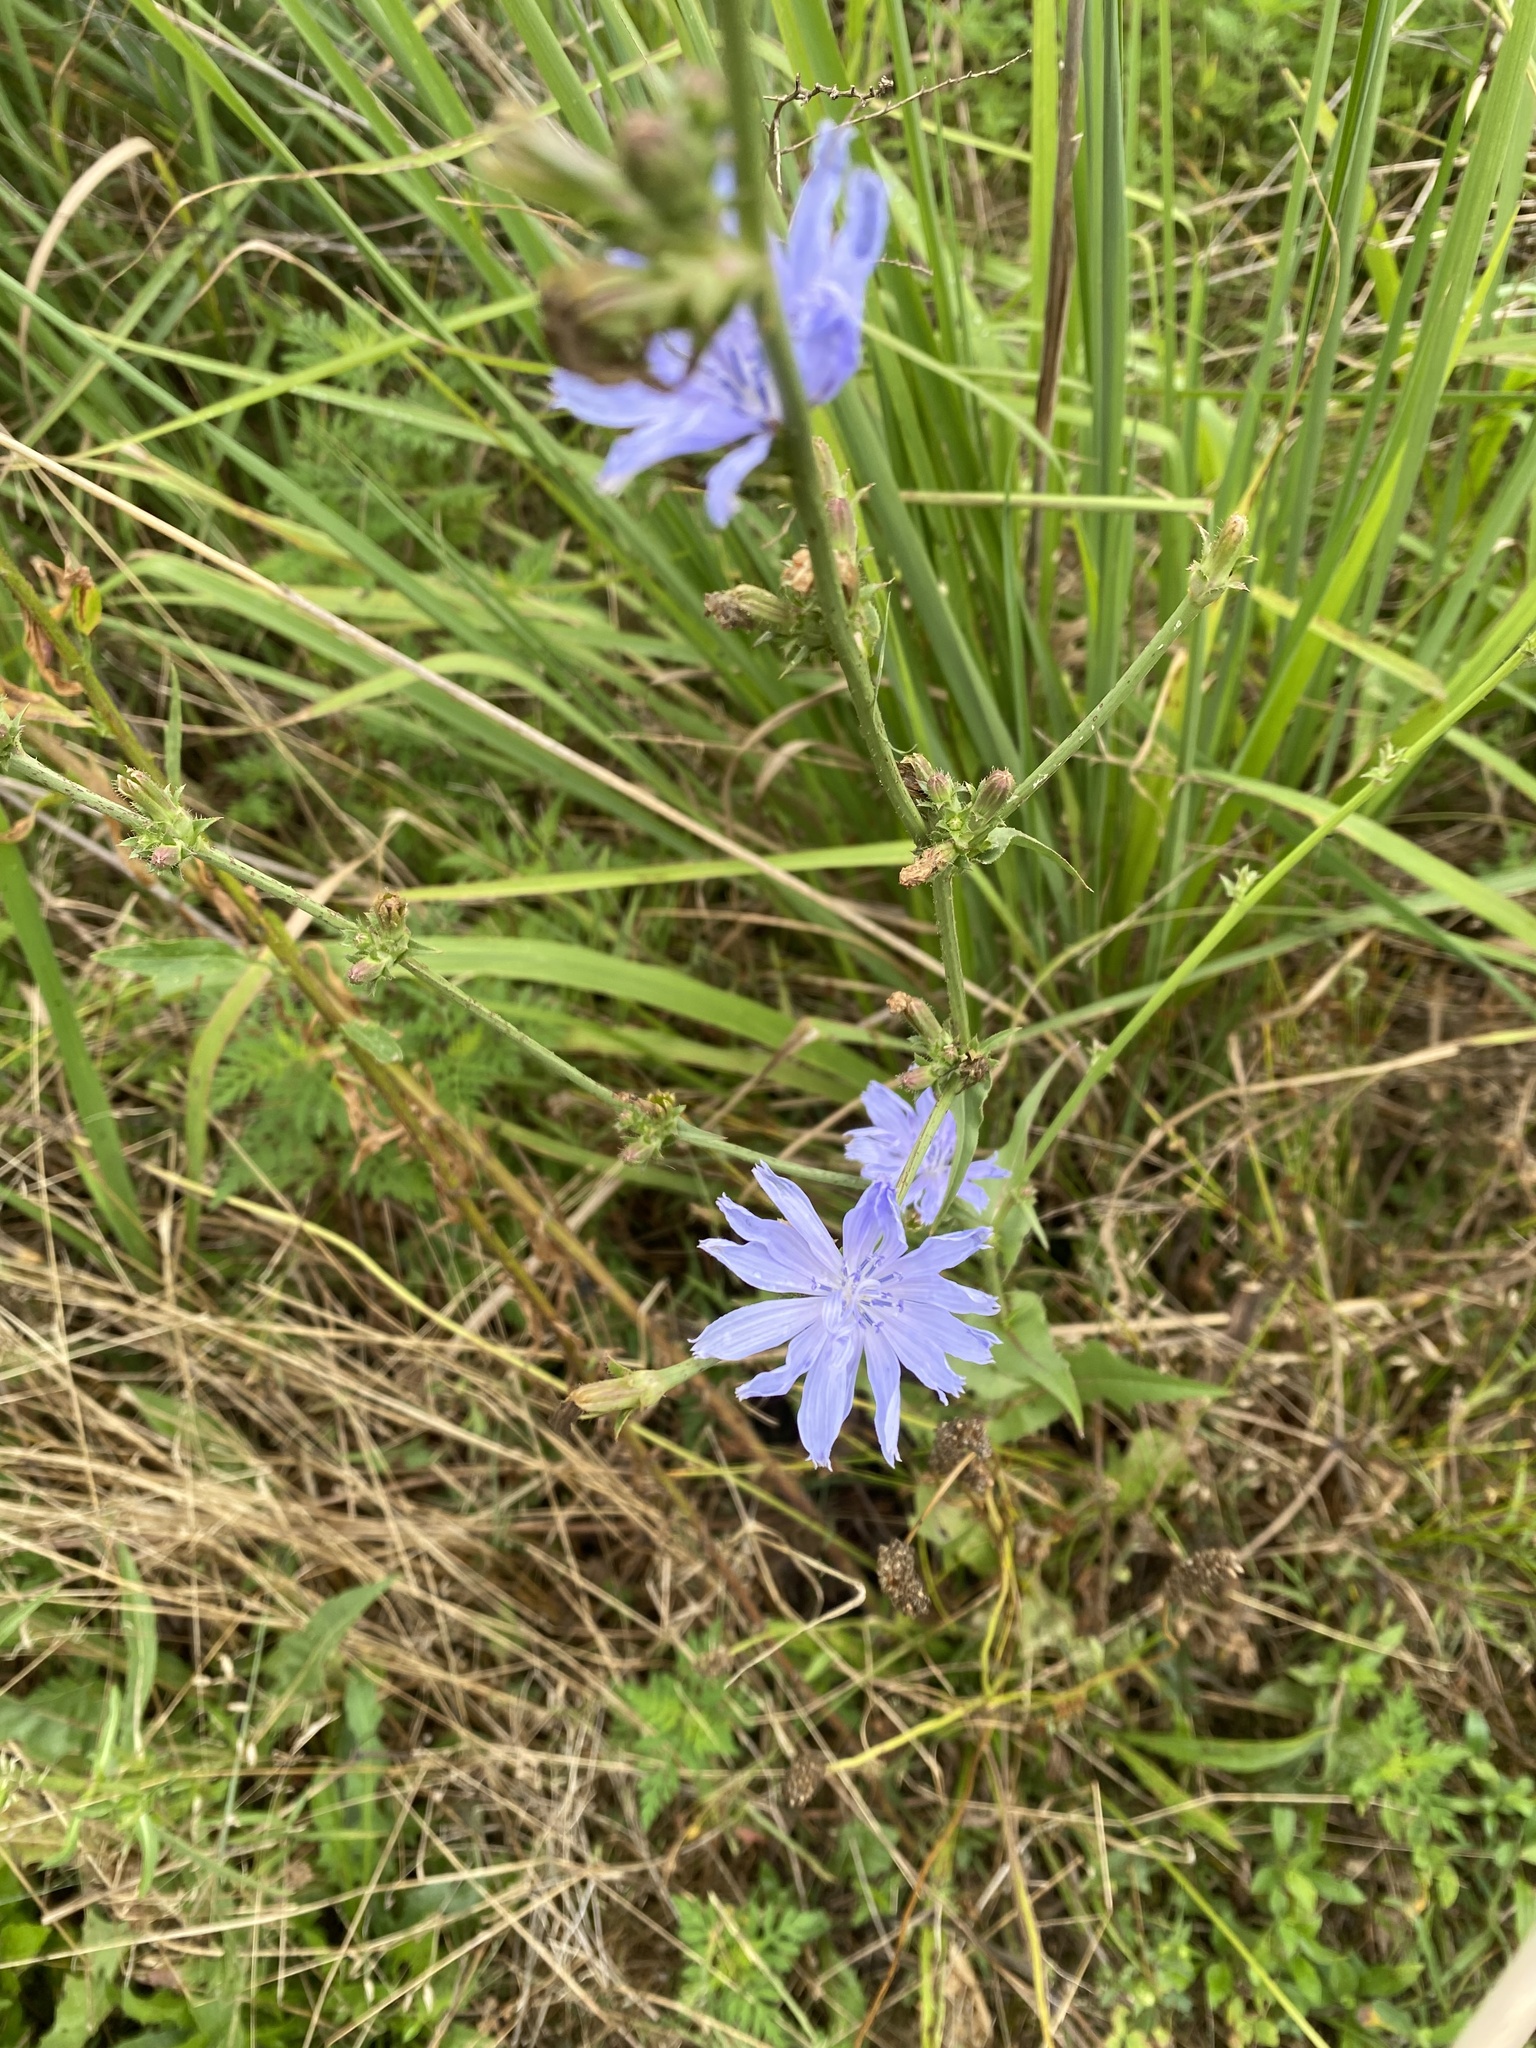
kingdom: Plantae
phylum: Tracheophyta
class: Magnoliopsida
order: Asterales
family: Asteraceae
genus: Cichorium
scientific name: Cichorium intybus
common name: Chicory
